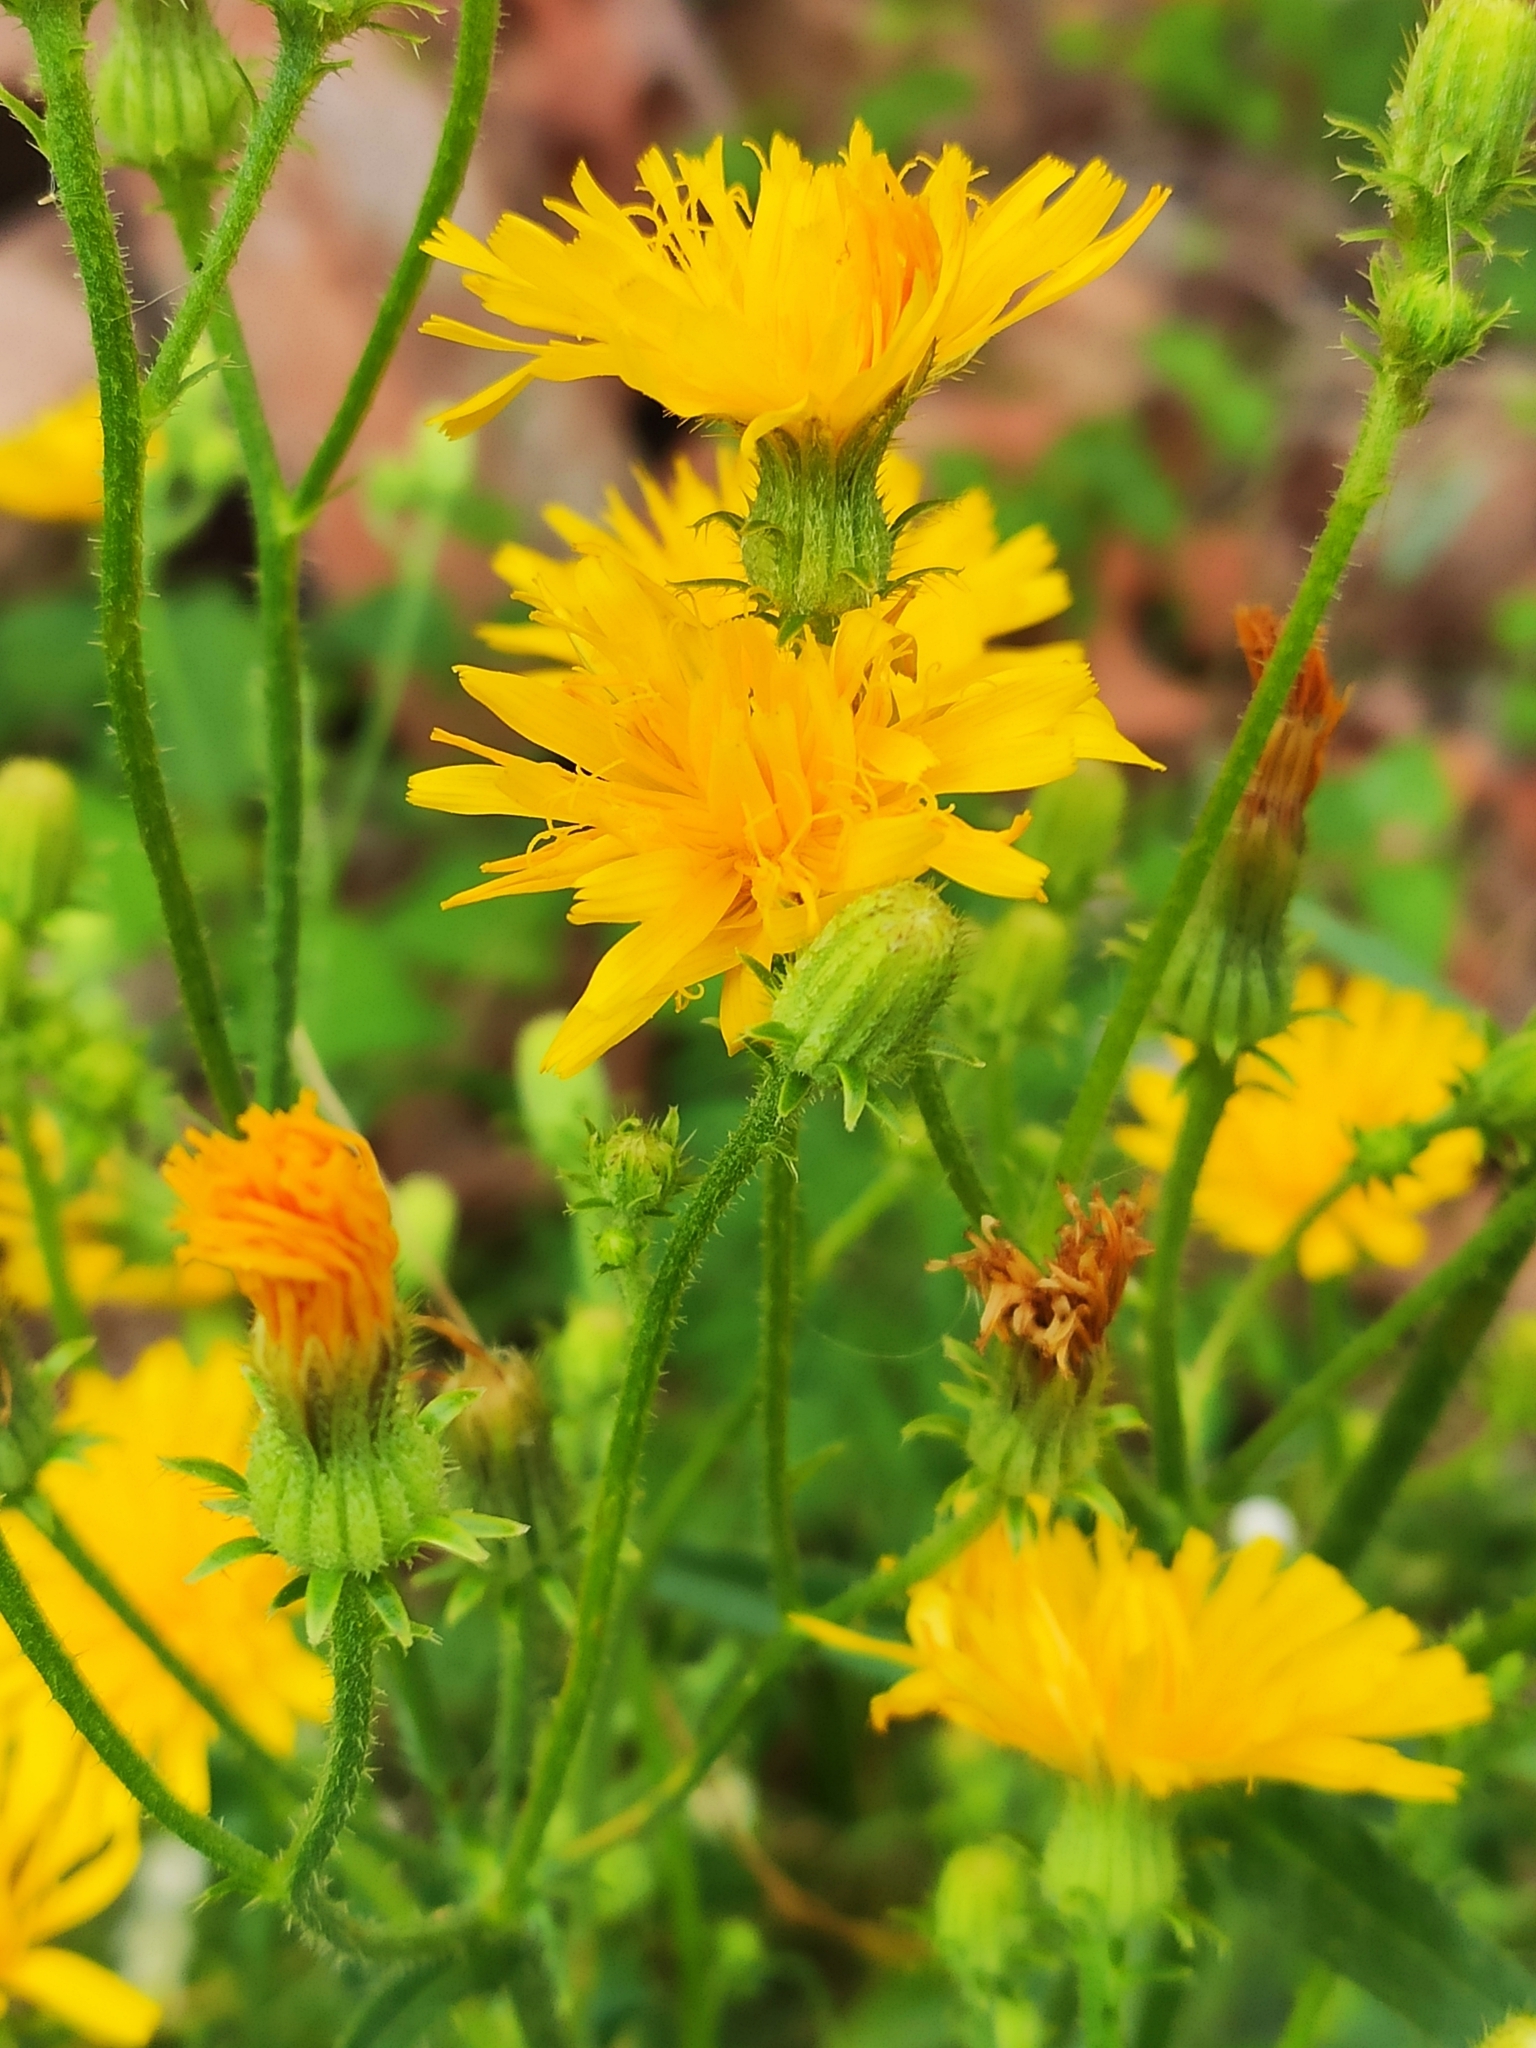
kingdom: Plantae
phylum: Tracheophyta
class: Magnoliopsida
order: Asterales
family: Asteraceae
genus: Picris
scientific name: Picris hieracioides
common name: Hawkweed oxtongue
